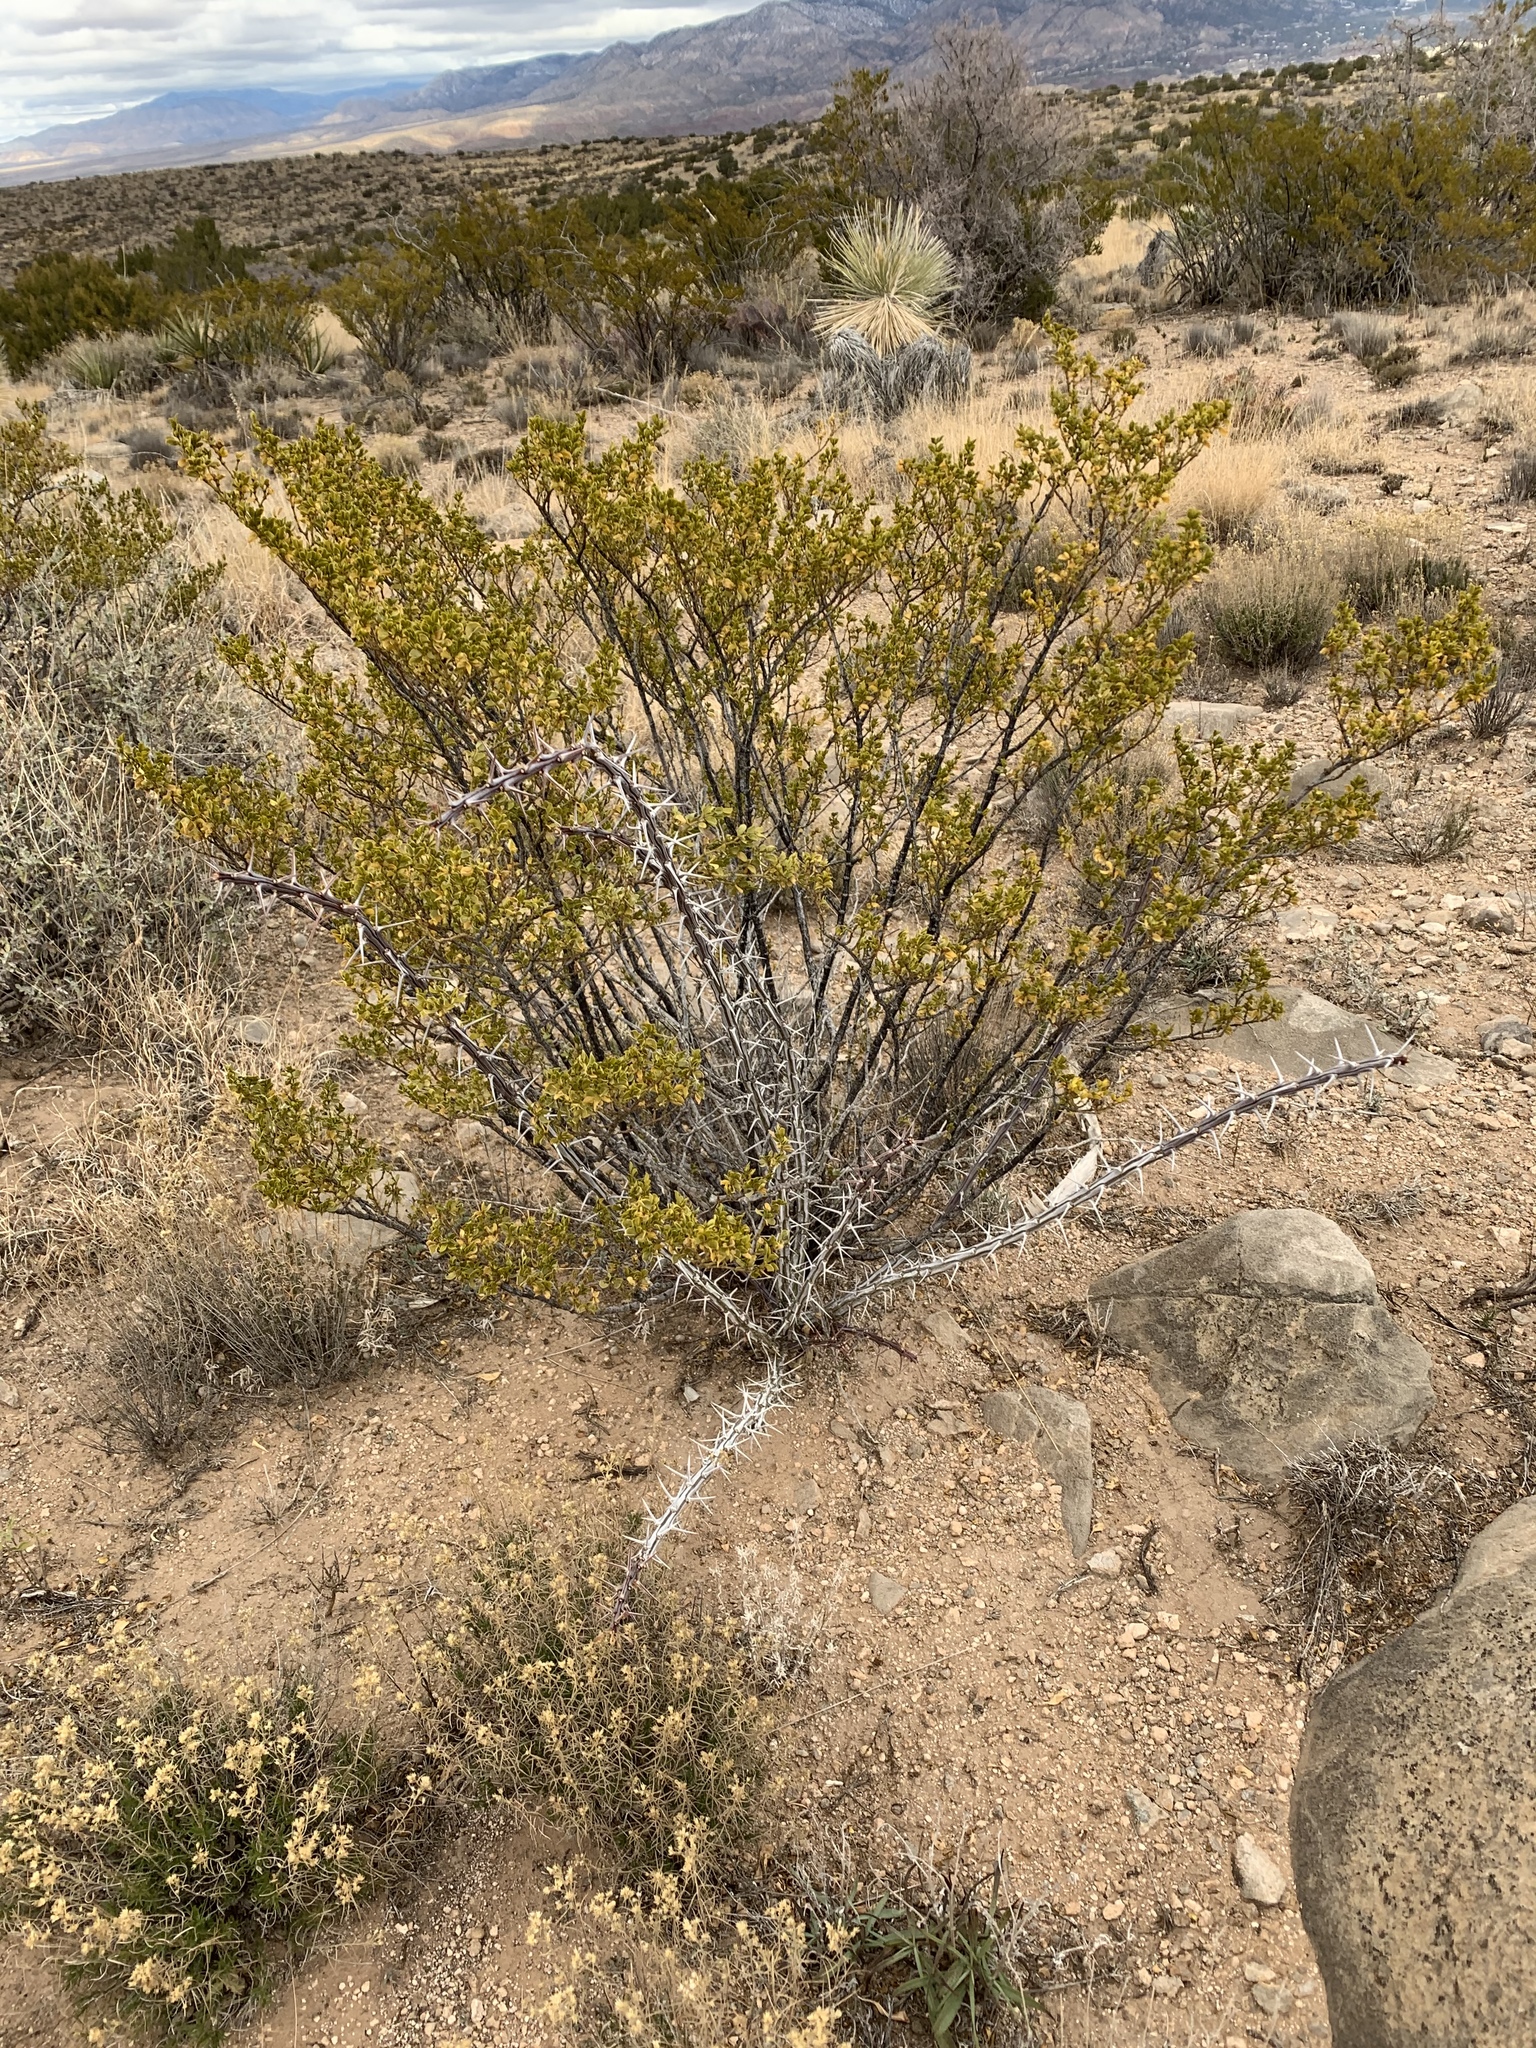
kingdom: Plantae
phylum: Tracheophyta
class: Magnoliopsida
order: Zygophyllales
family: Zygophyllaceae
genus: Larrea
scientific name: Larrea tridentata
